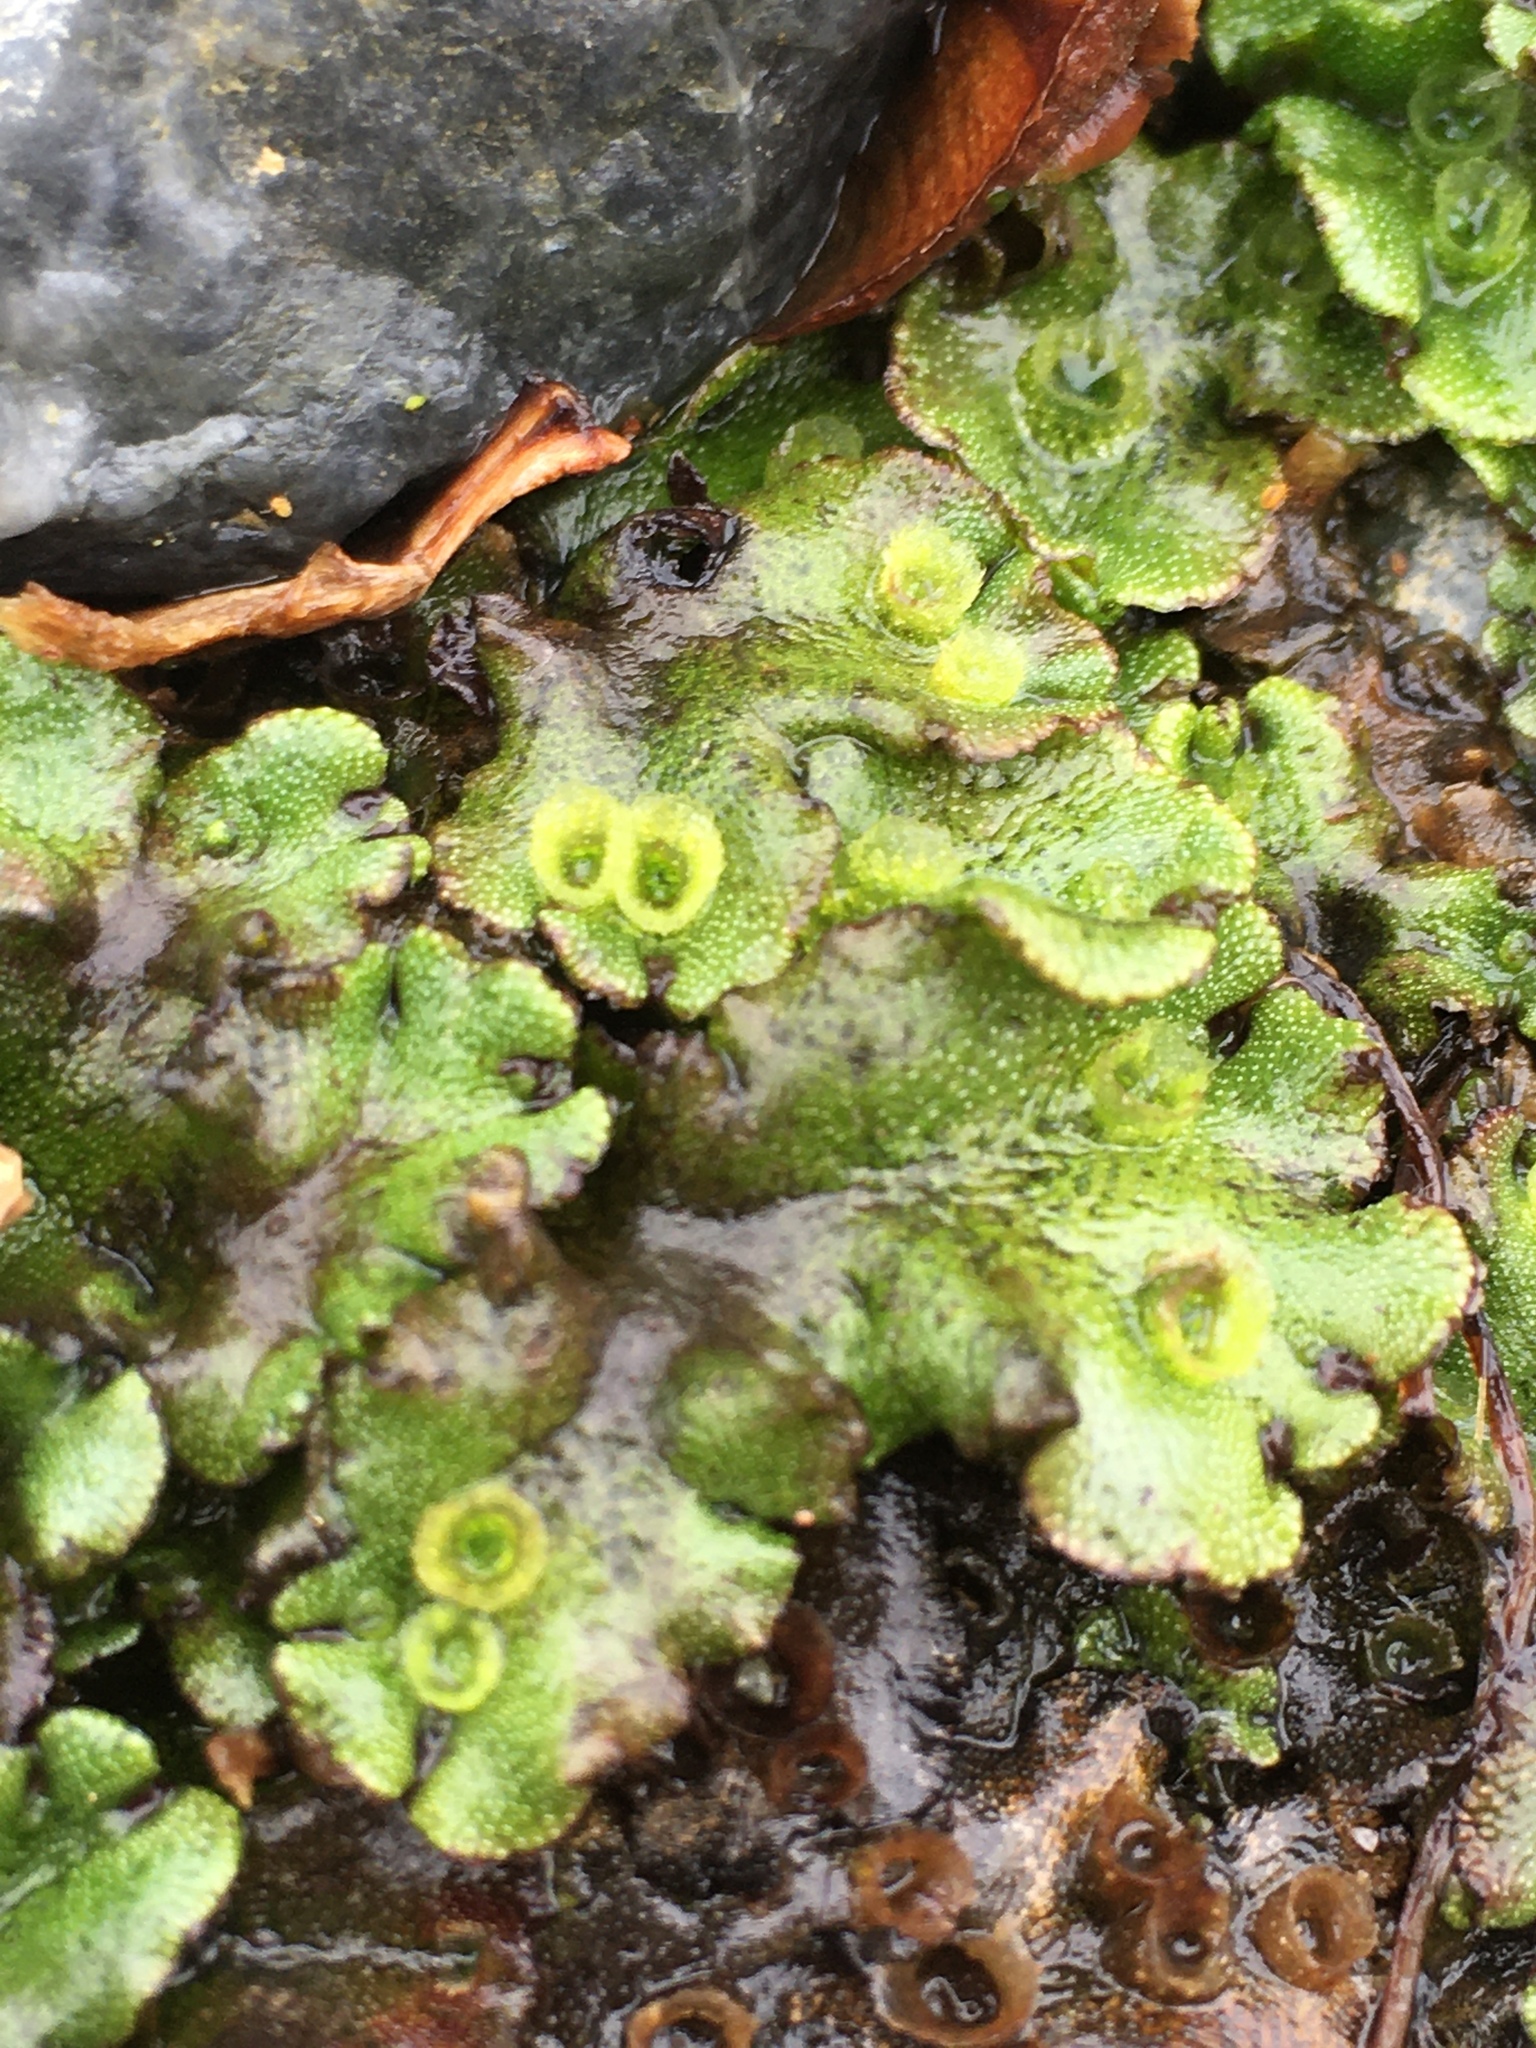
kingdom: Plantae
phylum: Marchantiophyta
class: Marchantiopsida
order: Marchantiales
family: Marchantiaceae
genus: Marchantia
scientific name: Marchantia polymorpha
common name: Common liverwort
